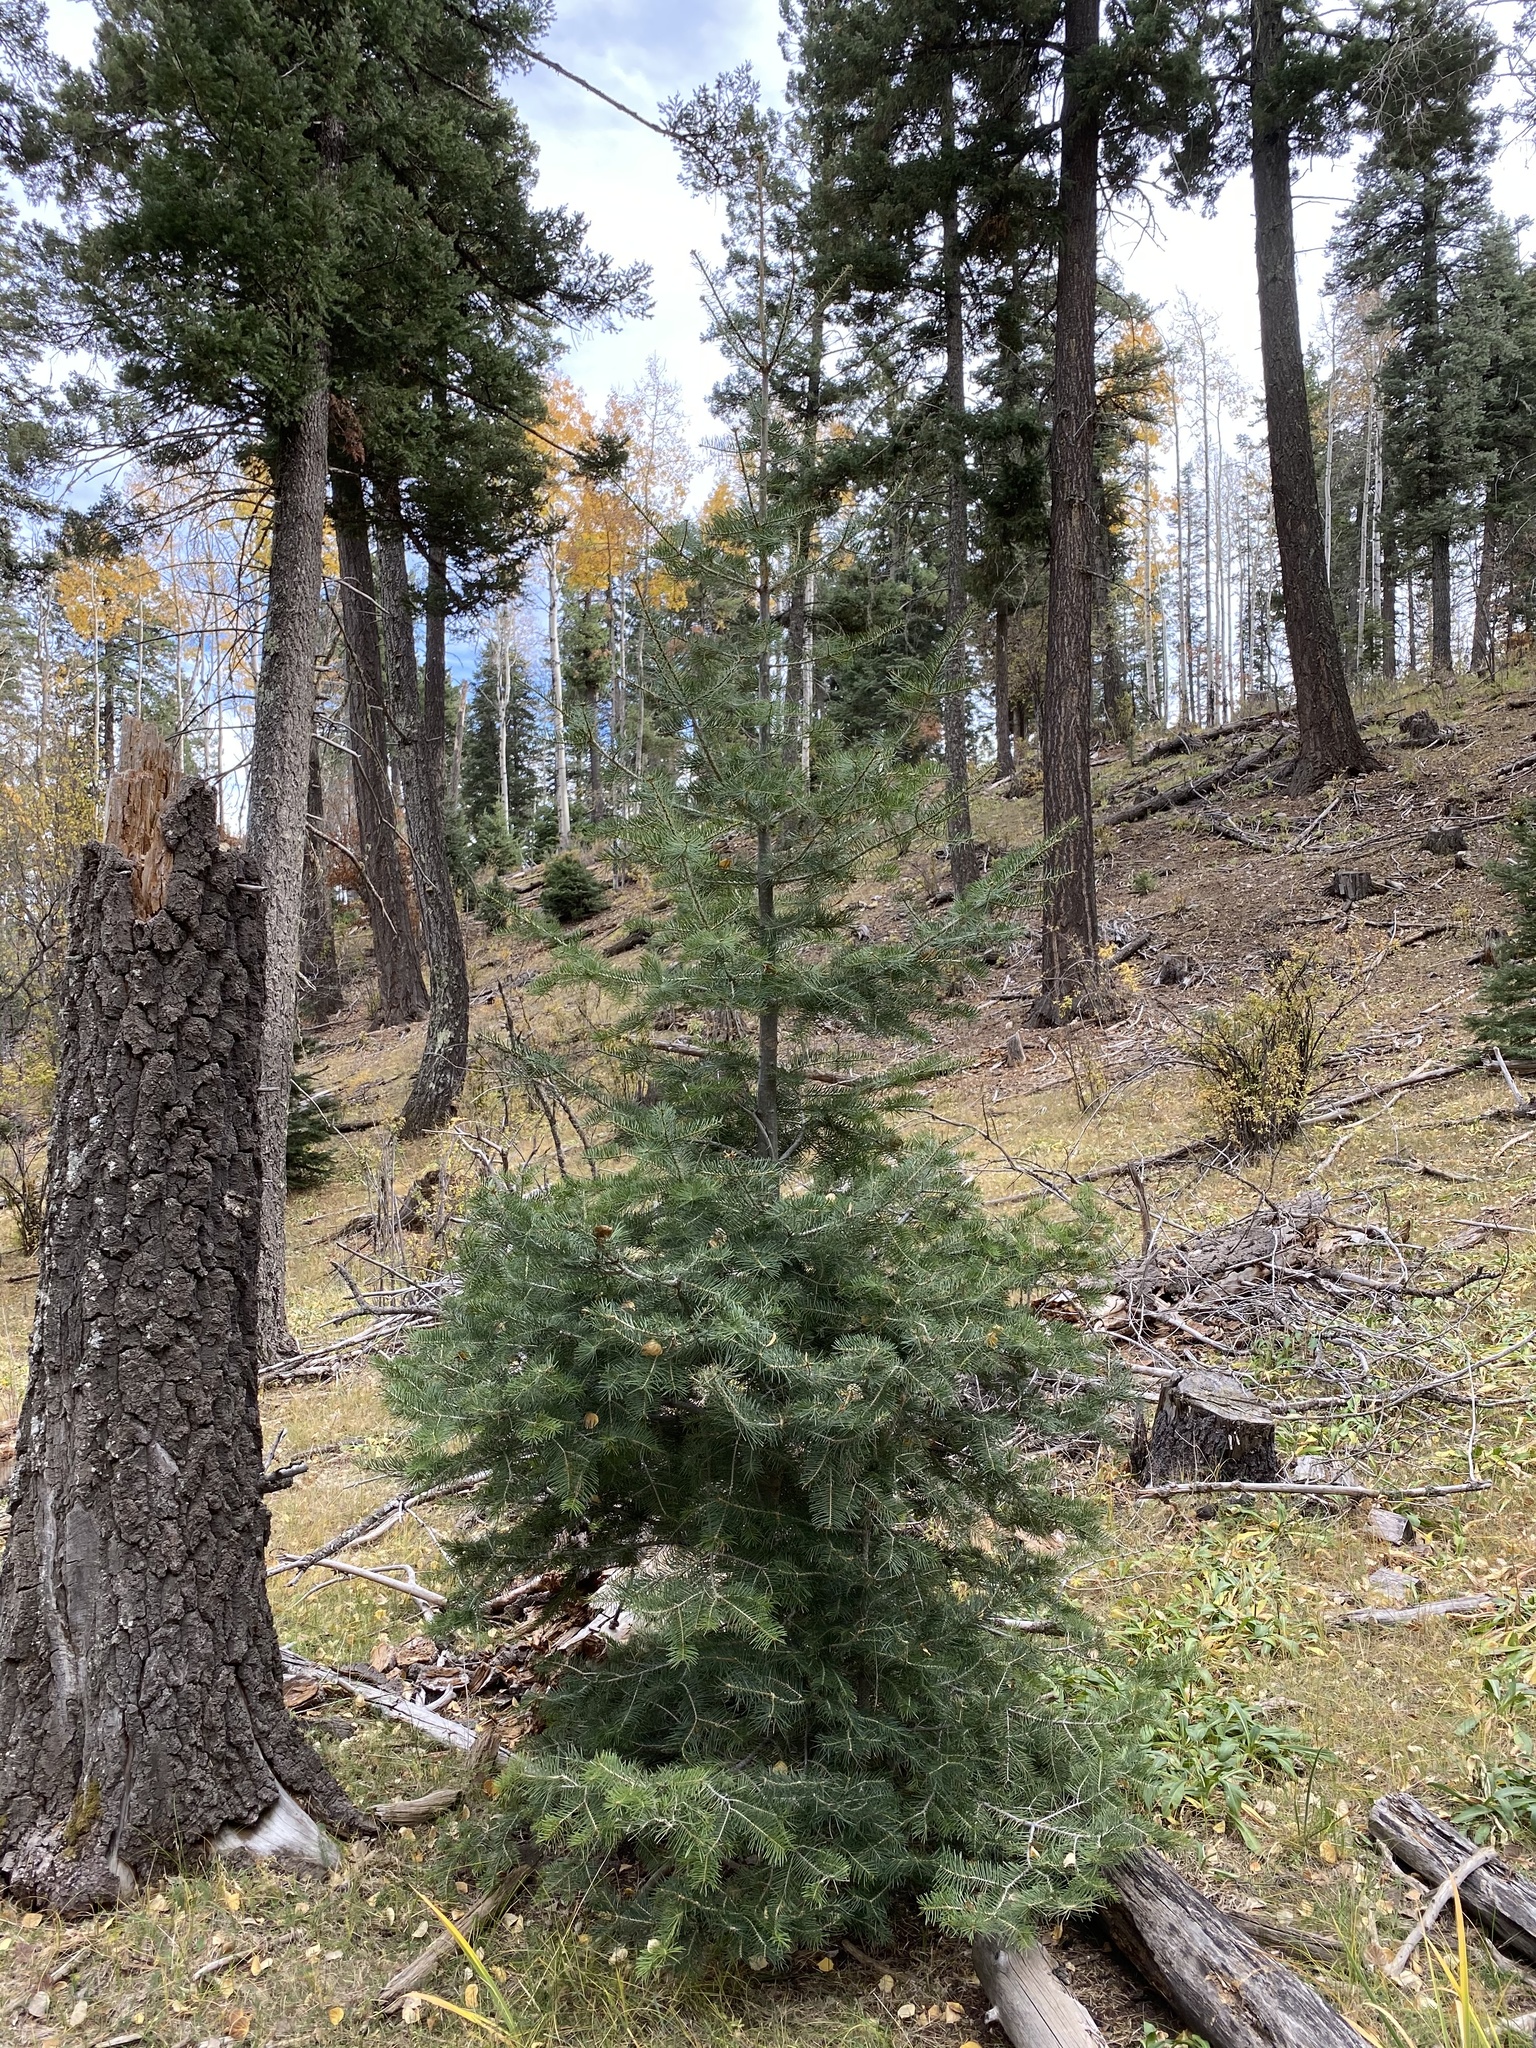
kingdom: Plantae
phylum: Tracheophyta
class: Pinopsida
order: Pinales
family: Pinaceae
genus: Abies
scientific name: Abies concolor
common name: Colorado fir
